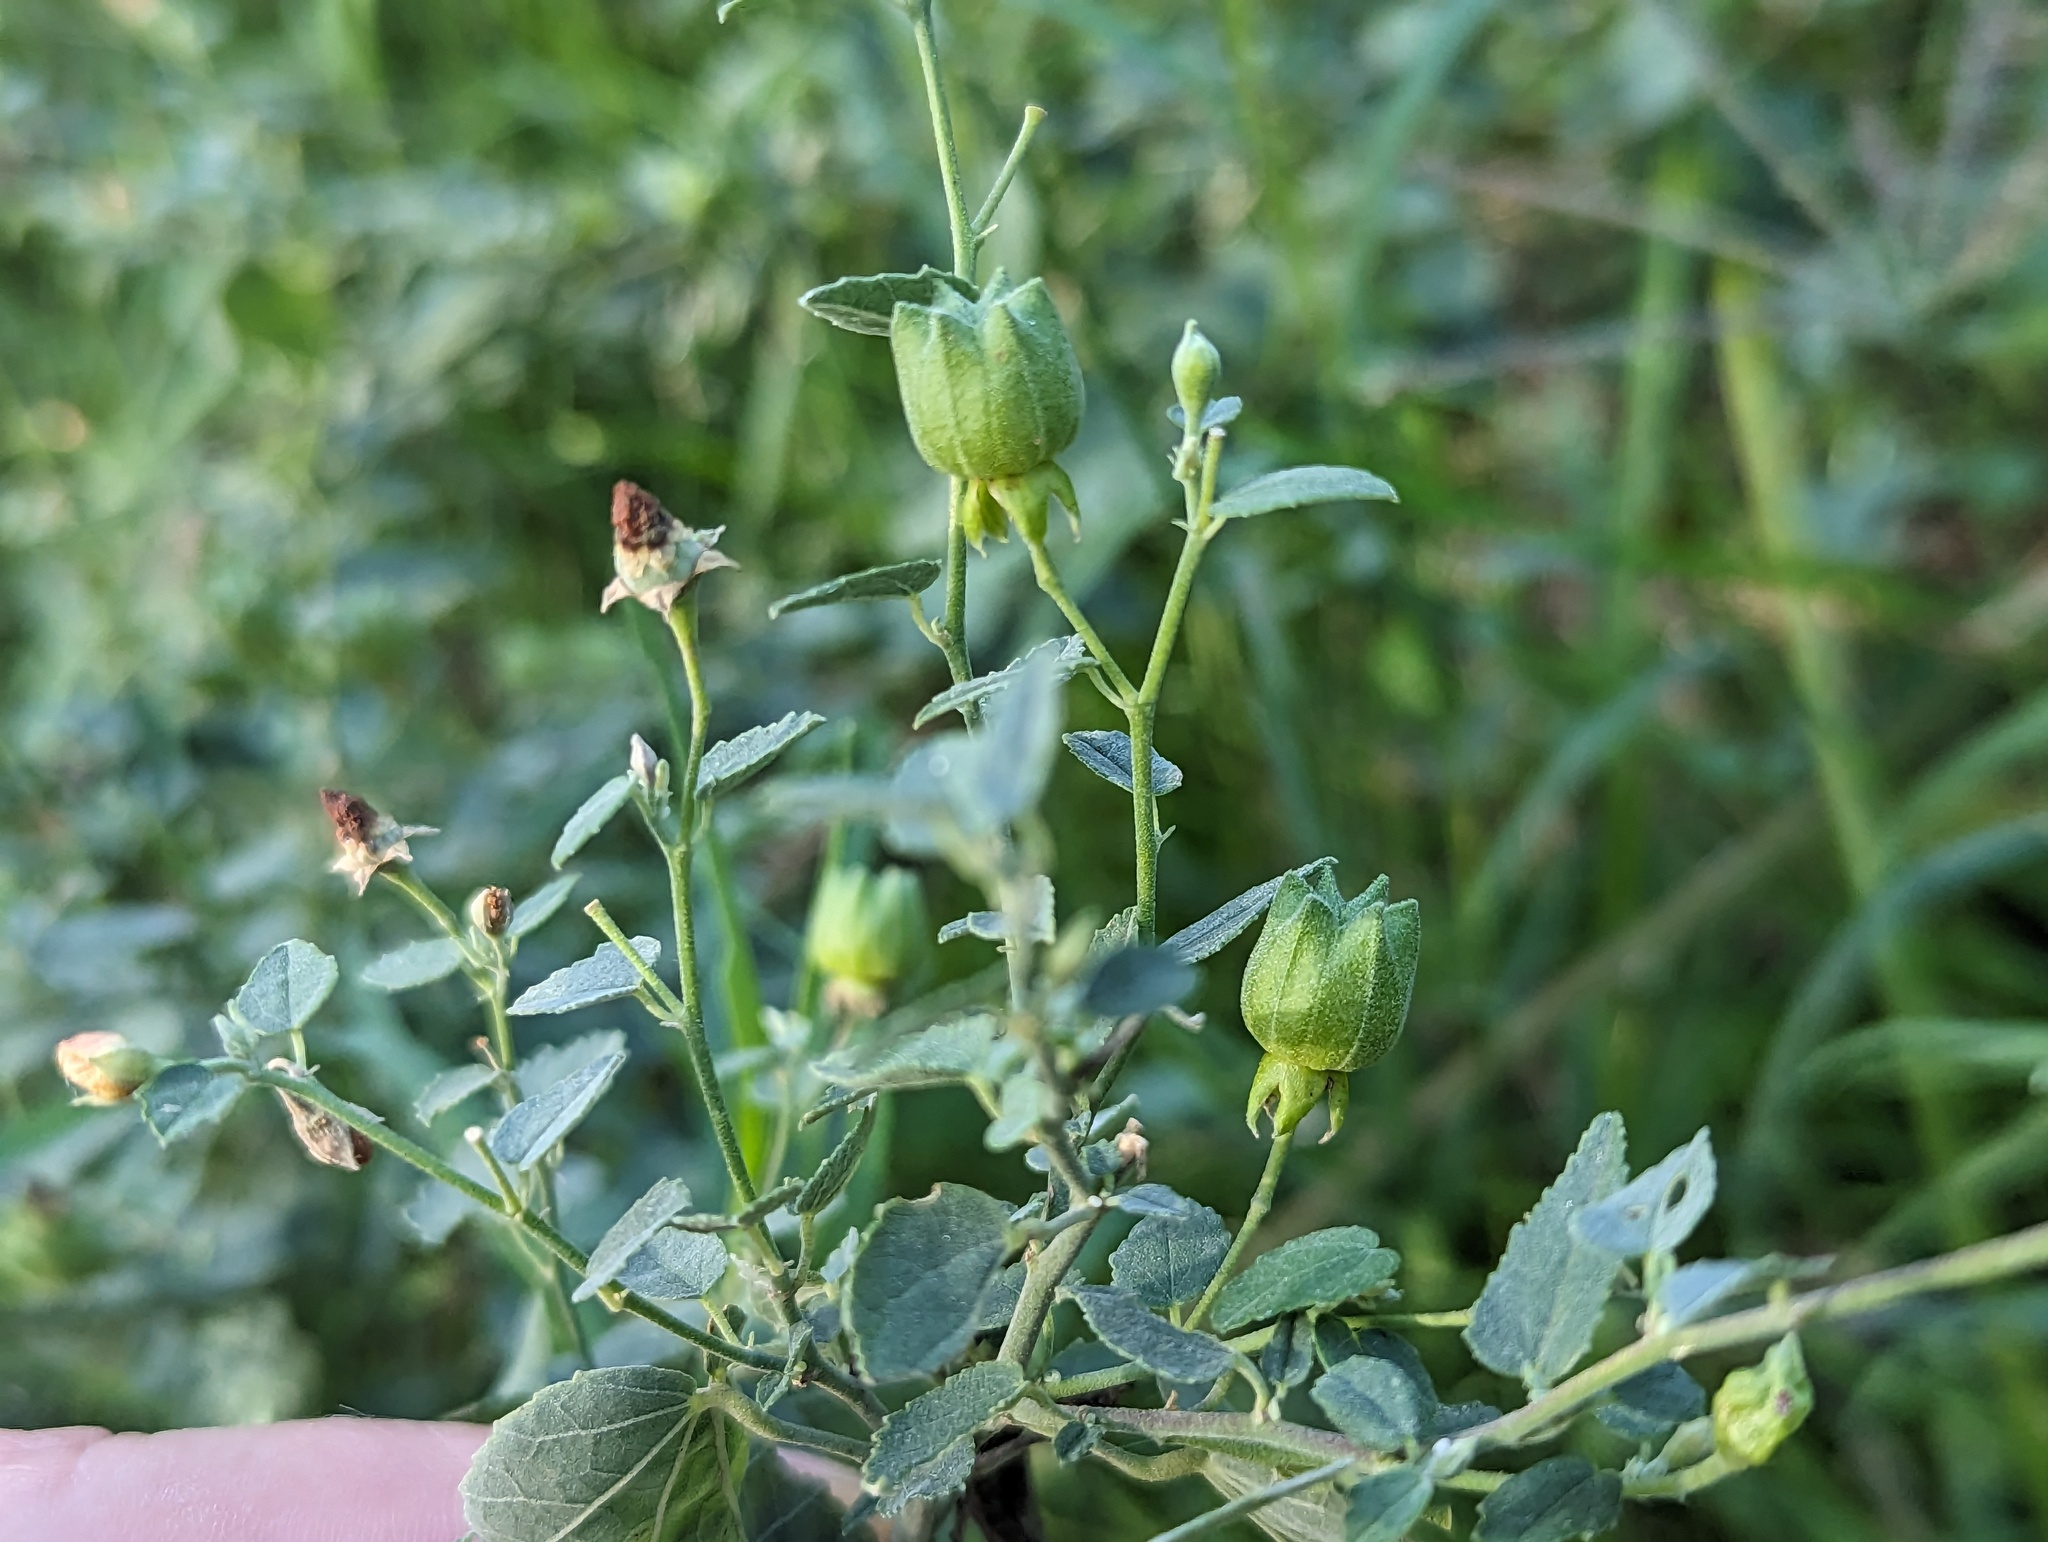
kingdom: Plantae
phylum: Tracheophyta
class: Magnoliopsida
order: Malvales
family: Malvaceae
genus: Abutilon
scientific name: Abutilon fruticosum
